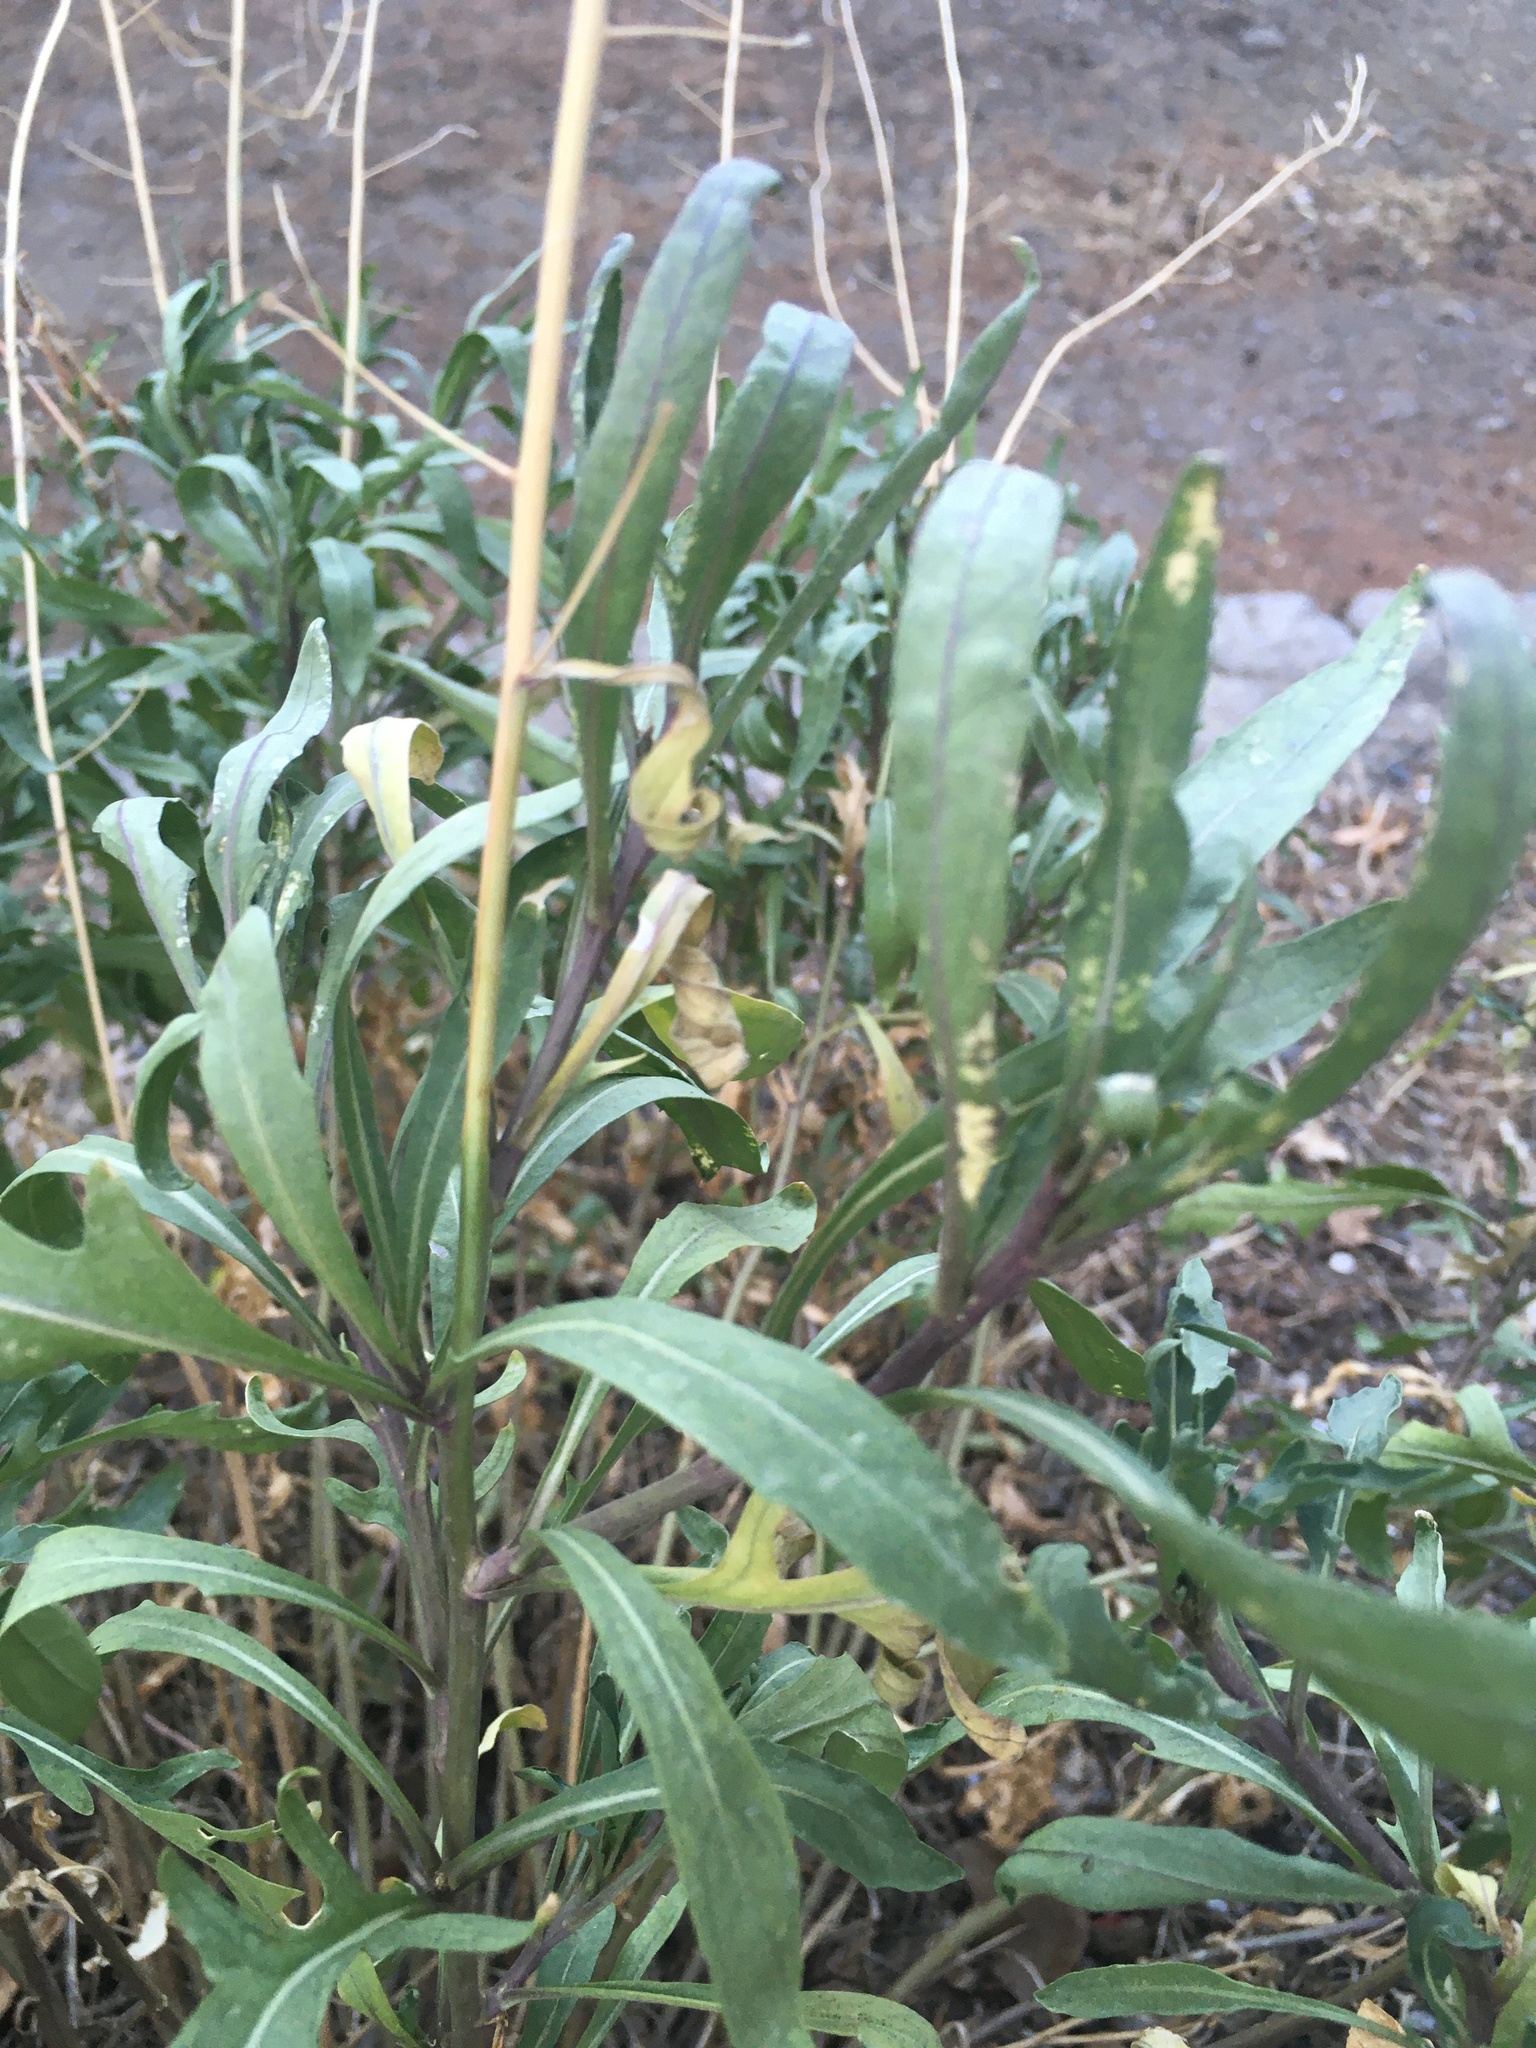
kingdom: Plantae
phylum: Tracheophyta
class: Magnoliopsida
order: Brassicales
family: Brassicaceae
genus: Diplotaxis
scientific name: Diplotaxis tenuifolia
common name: Perennial wall-rocket
